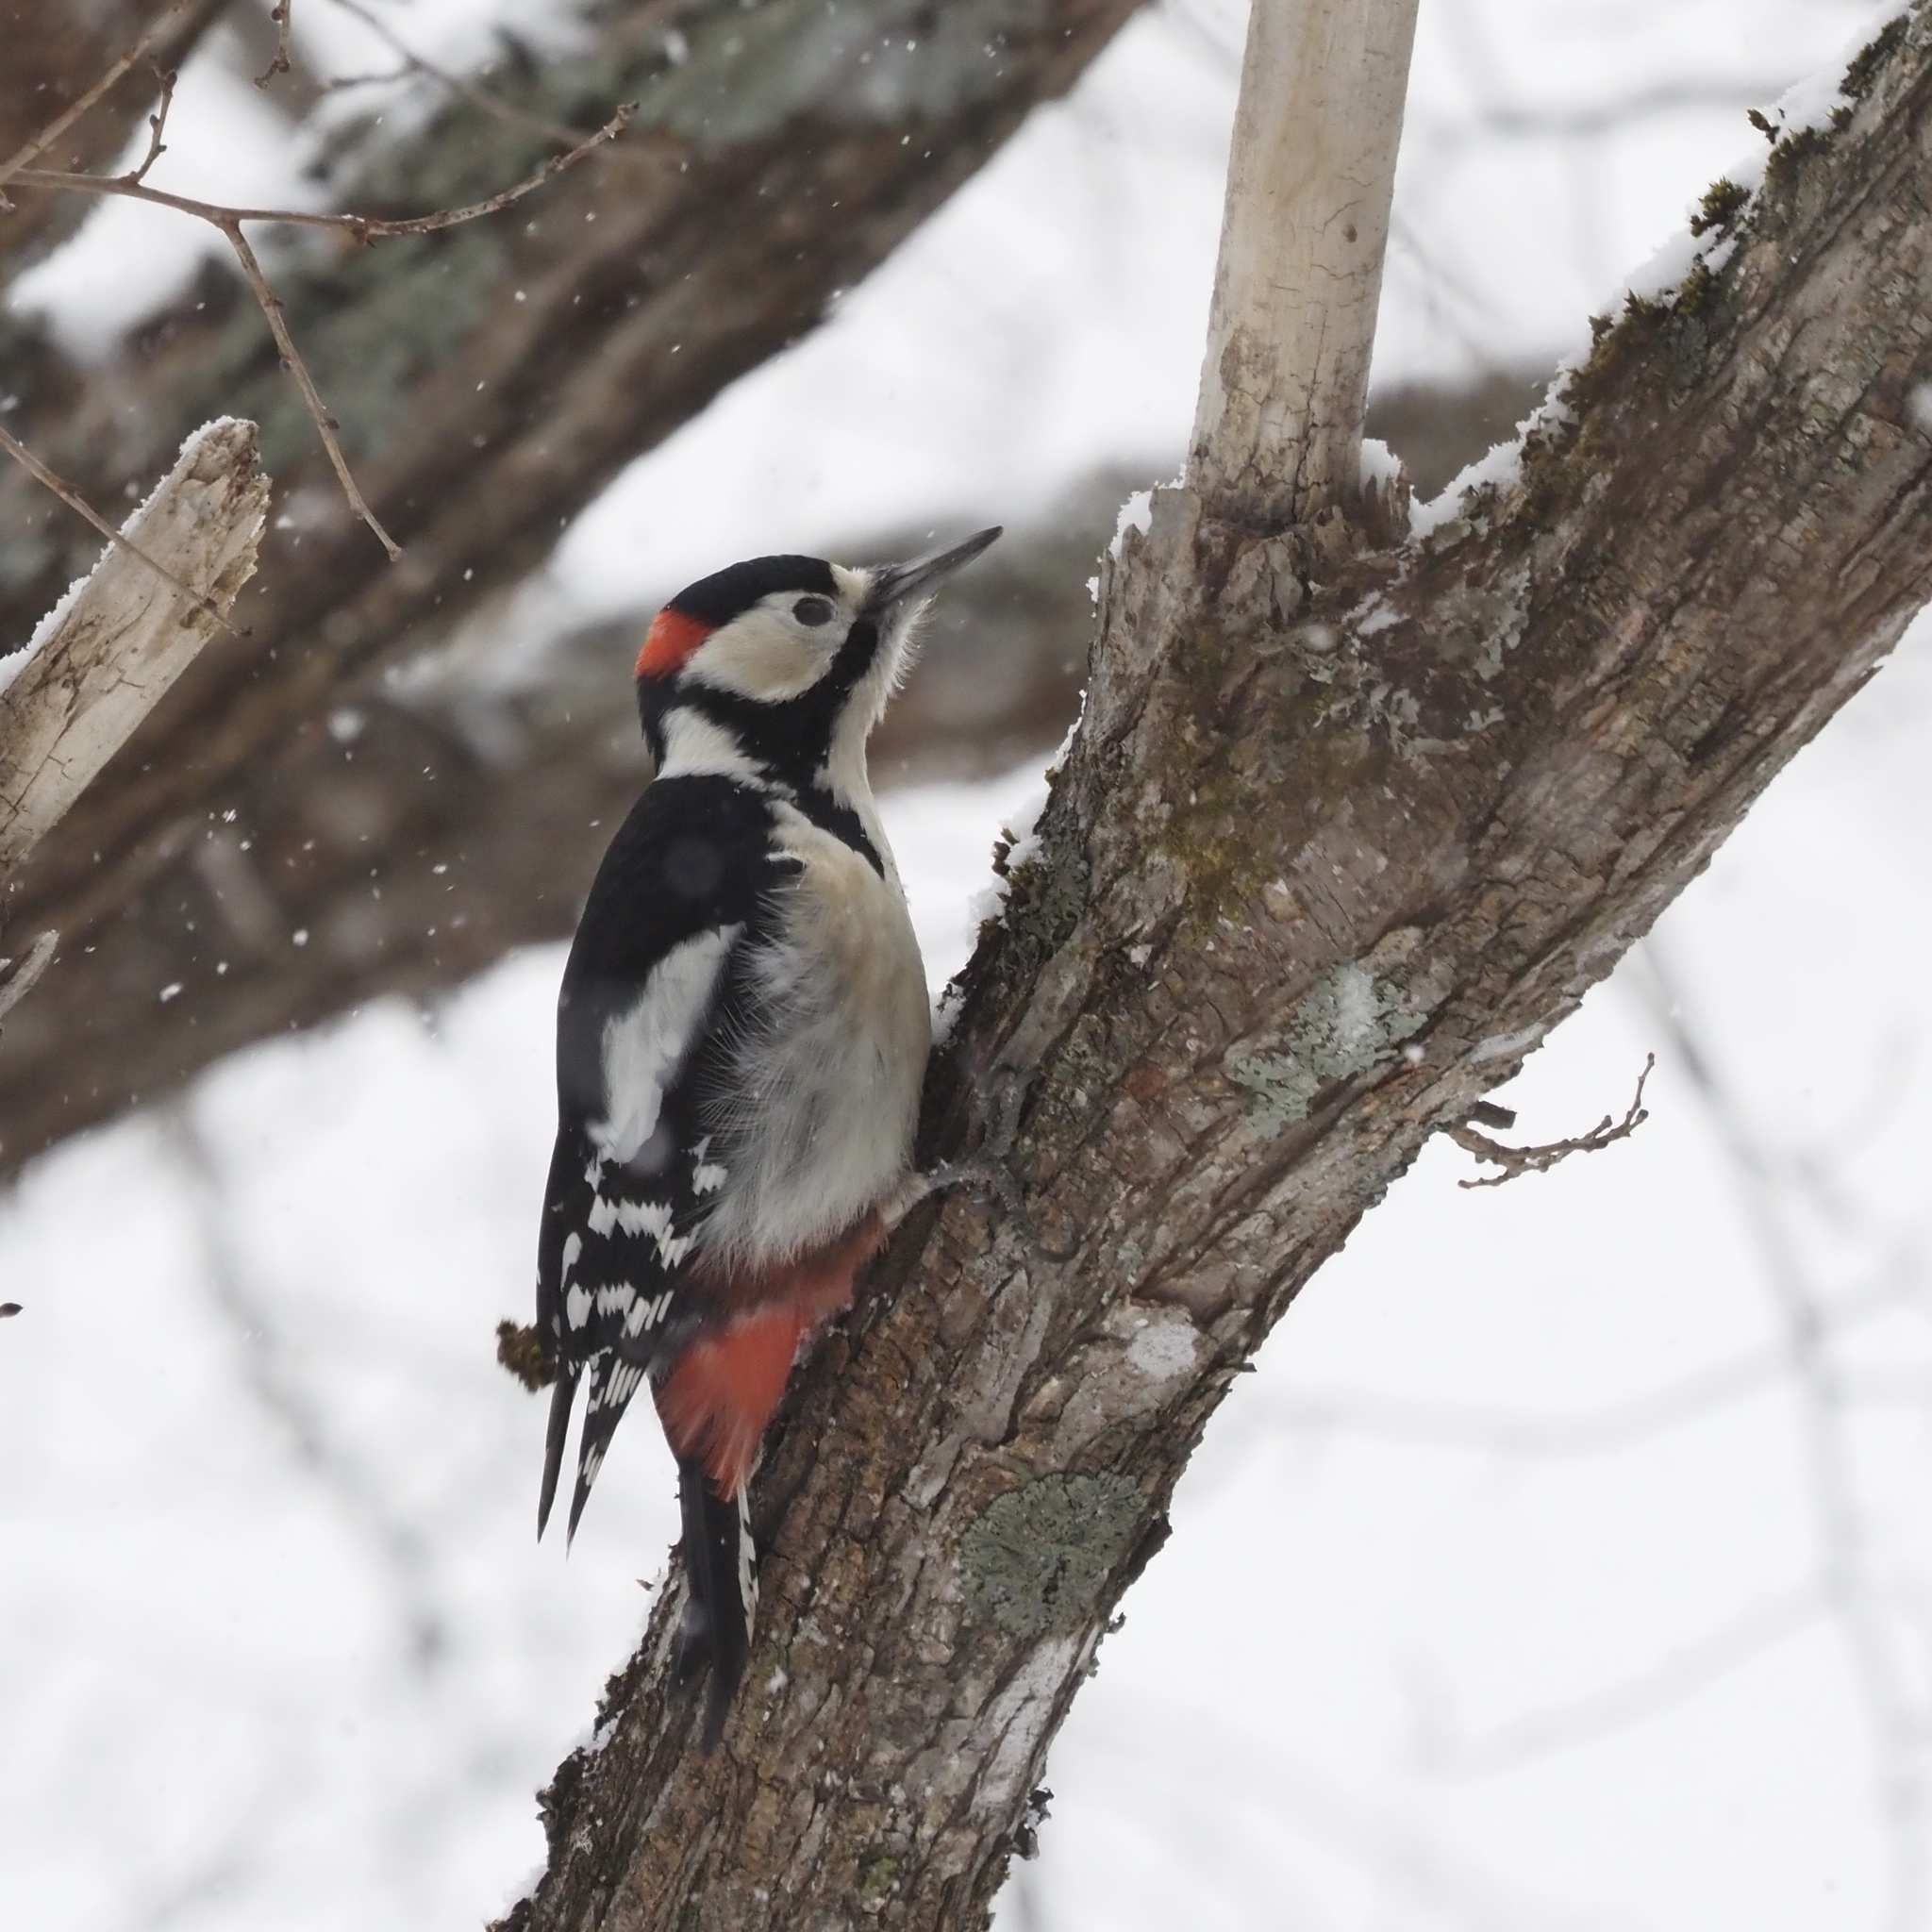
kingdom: Animalia
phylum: Chordata
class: Aves
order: Piciformes
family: Picidae
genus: Dendrocopos
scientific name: Dendrocopos major
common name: Great spotted woodpecker
